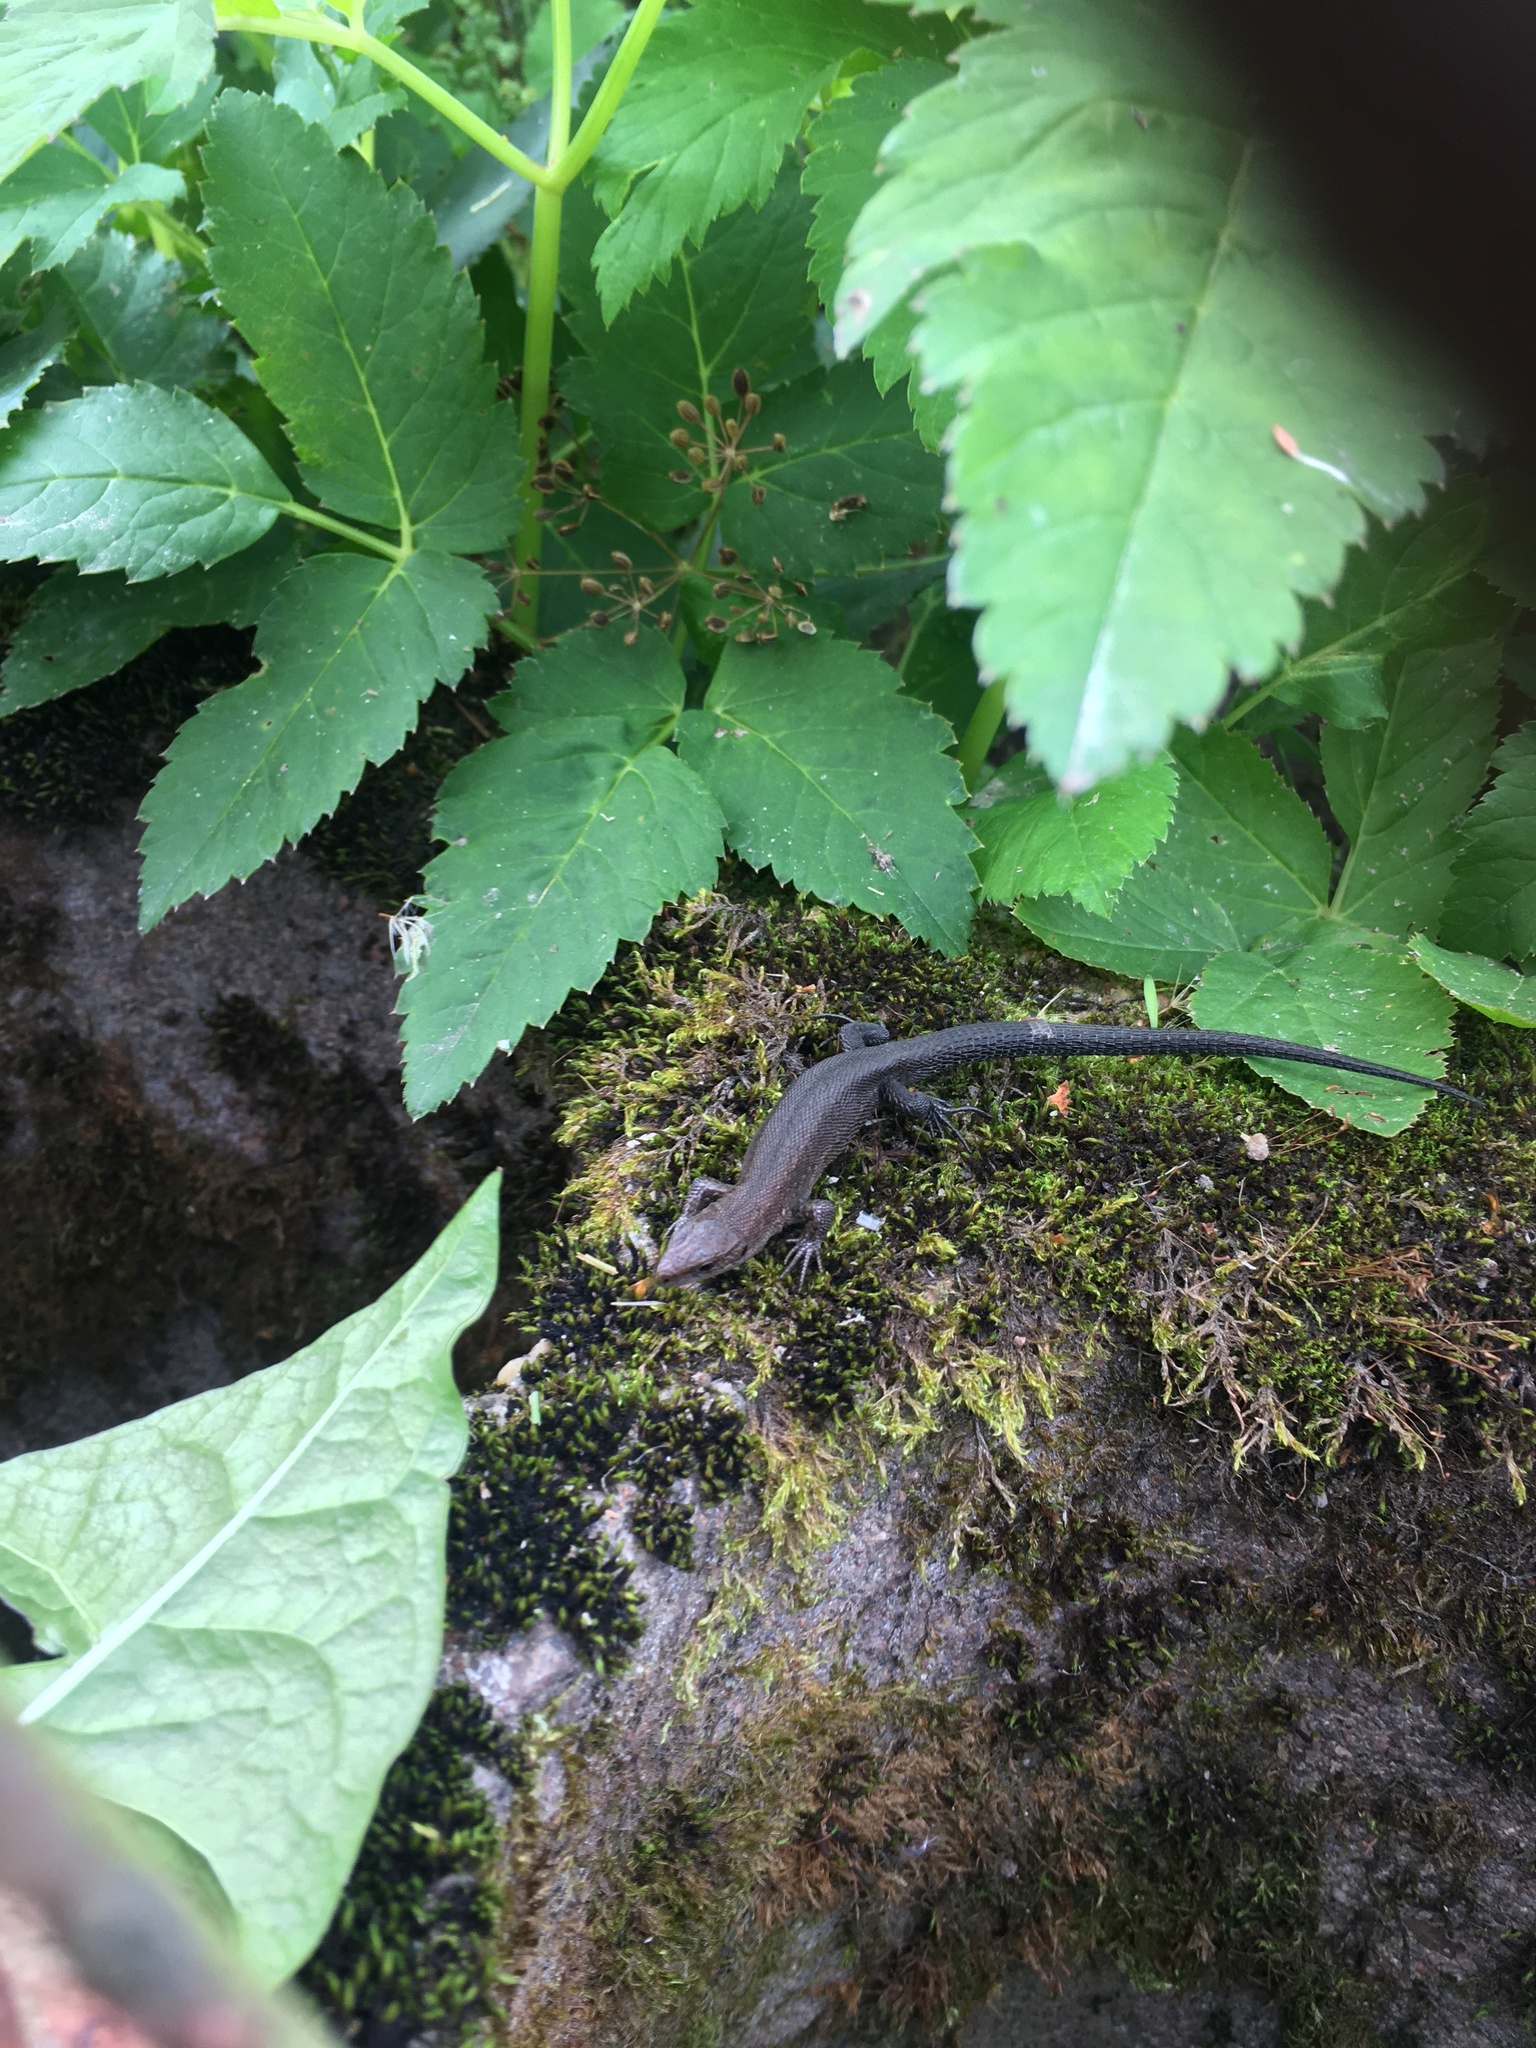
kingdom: Animalia
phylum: Chordata
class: Squamata
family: Lacertidae
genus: Zootoca
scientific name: Zootoca vivipara
